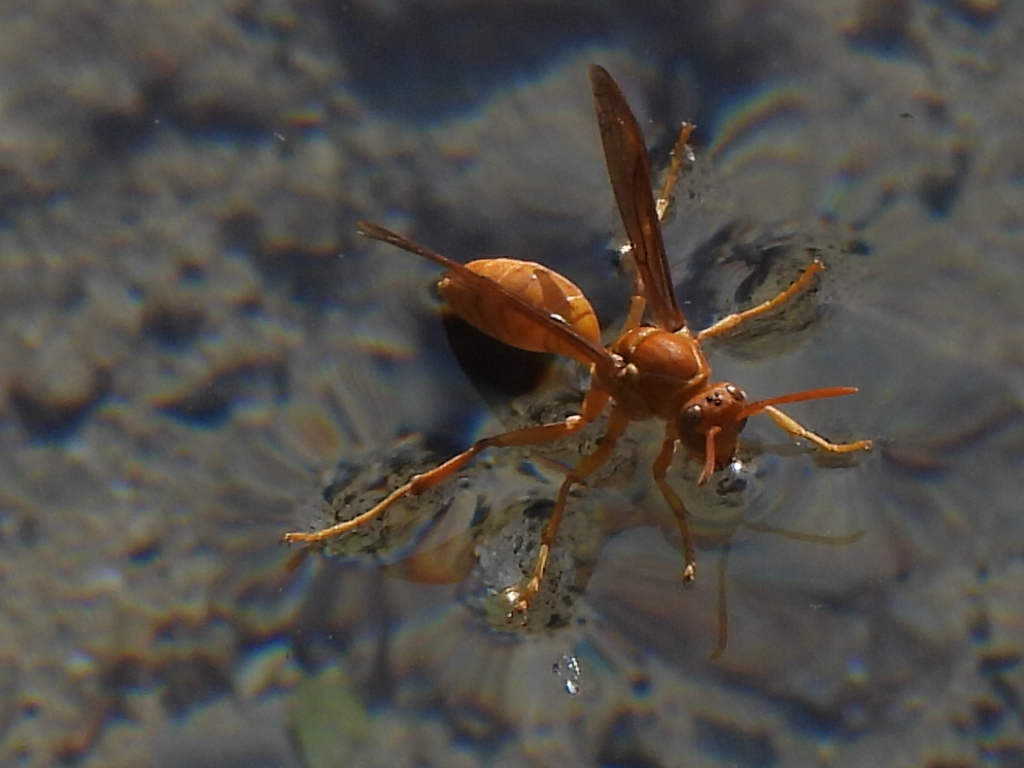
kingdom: Animalia
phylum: Arthropoda
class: Insecta
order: Hymenoptera
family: Eumenidae
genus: Polistes
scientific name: Polistes wattii
